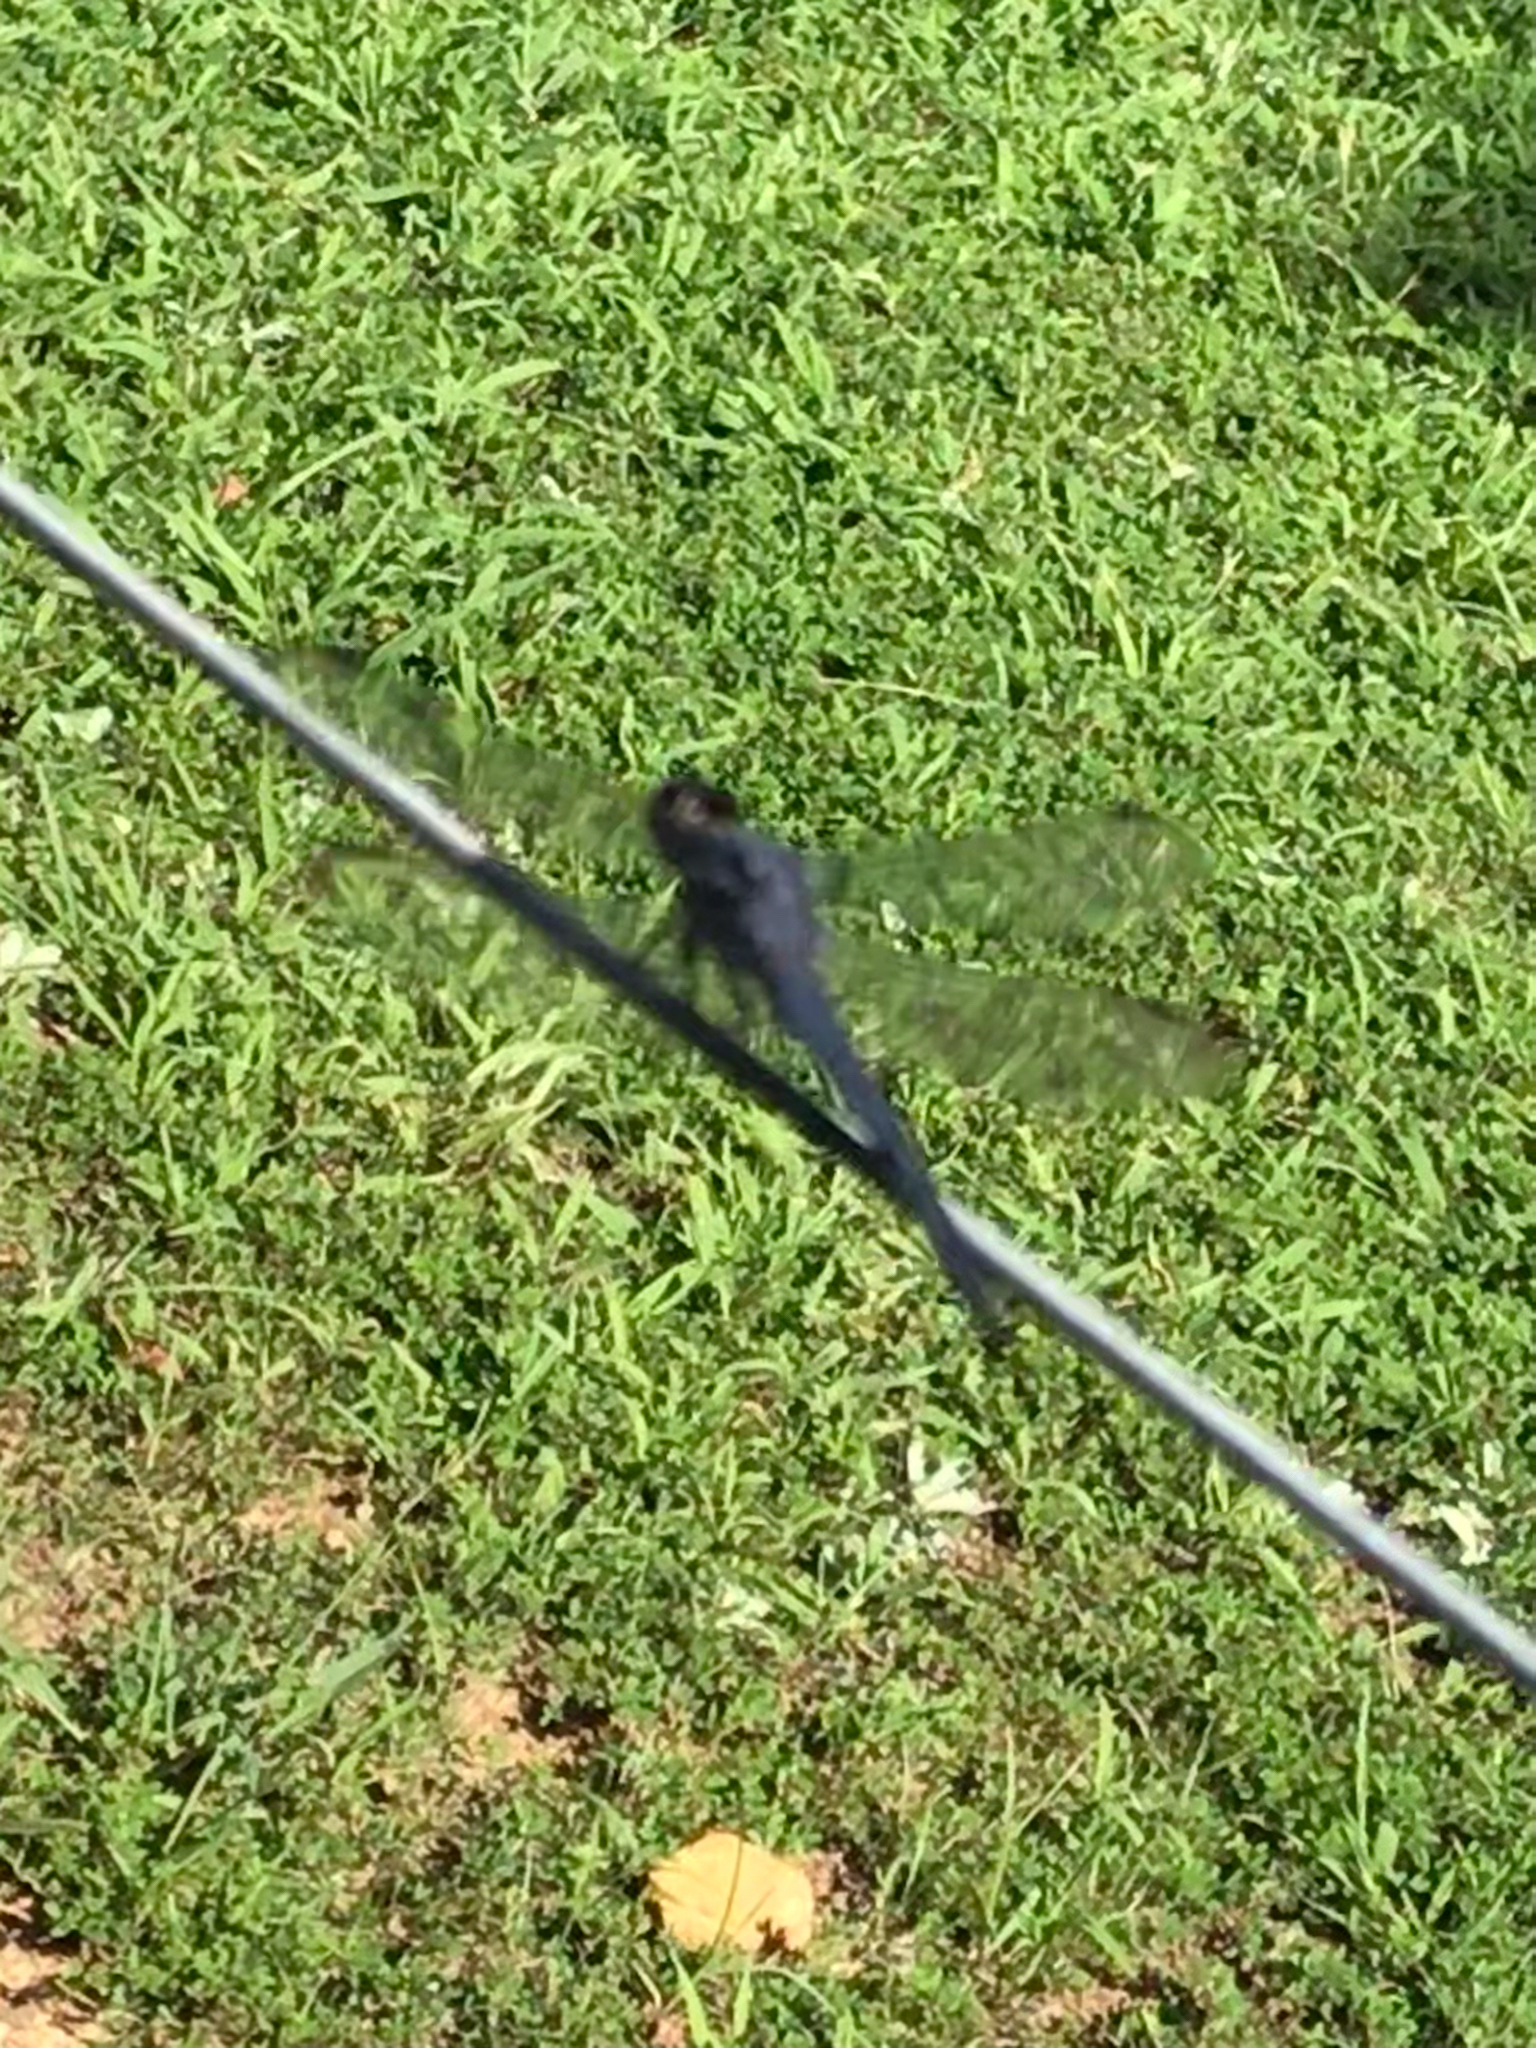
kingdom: Animalia
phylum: Arthropoda
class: Insecta
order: Odonata
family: Libellulidae
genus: Libellula
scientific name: Libellula incesta
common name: Slaty skimmer
